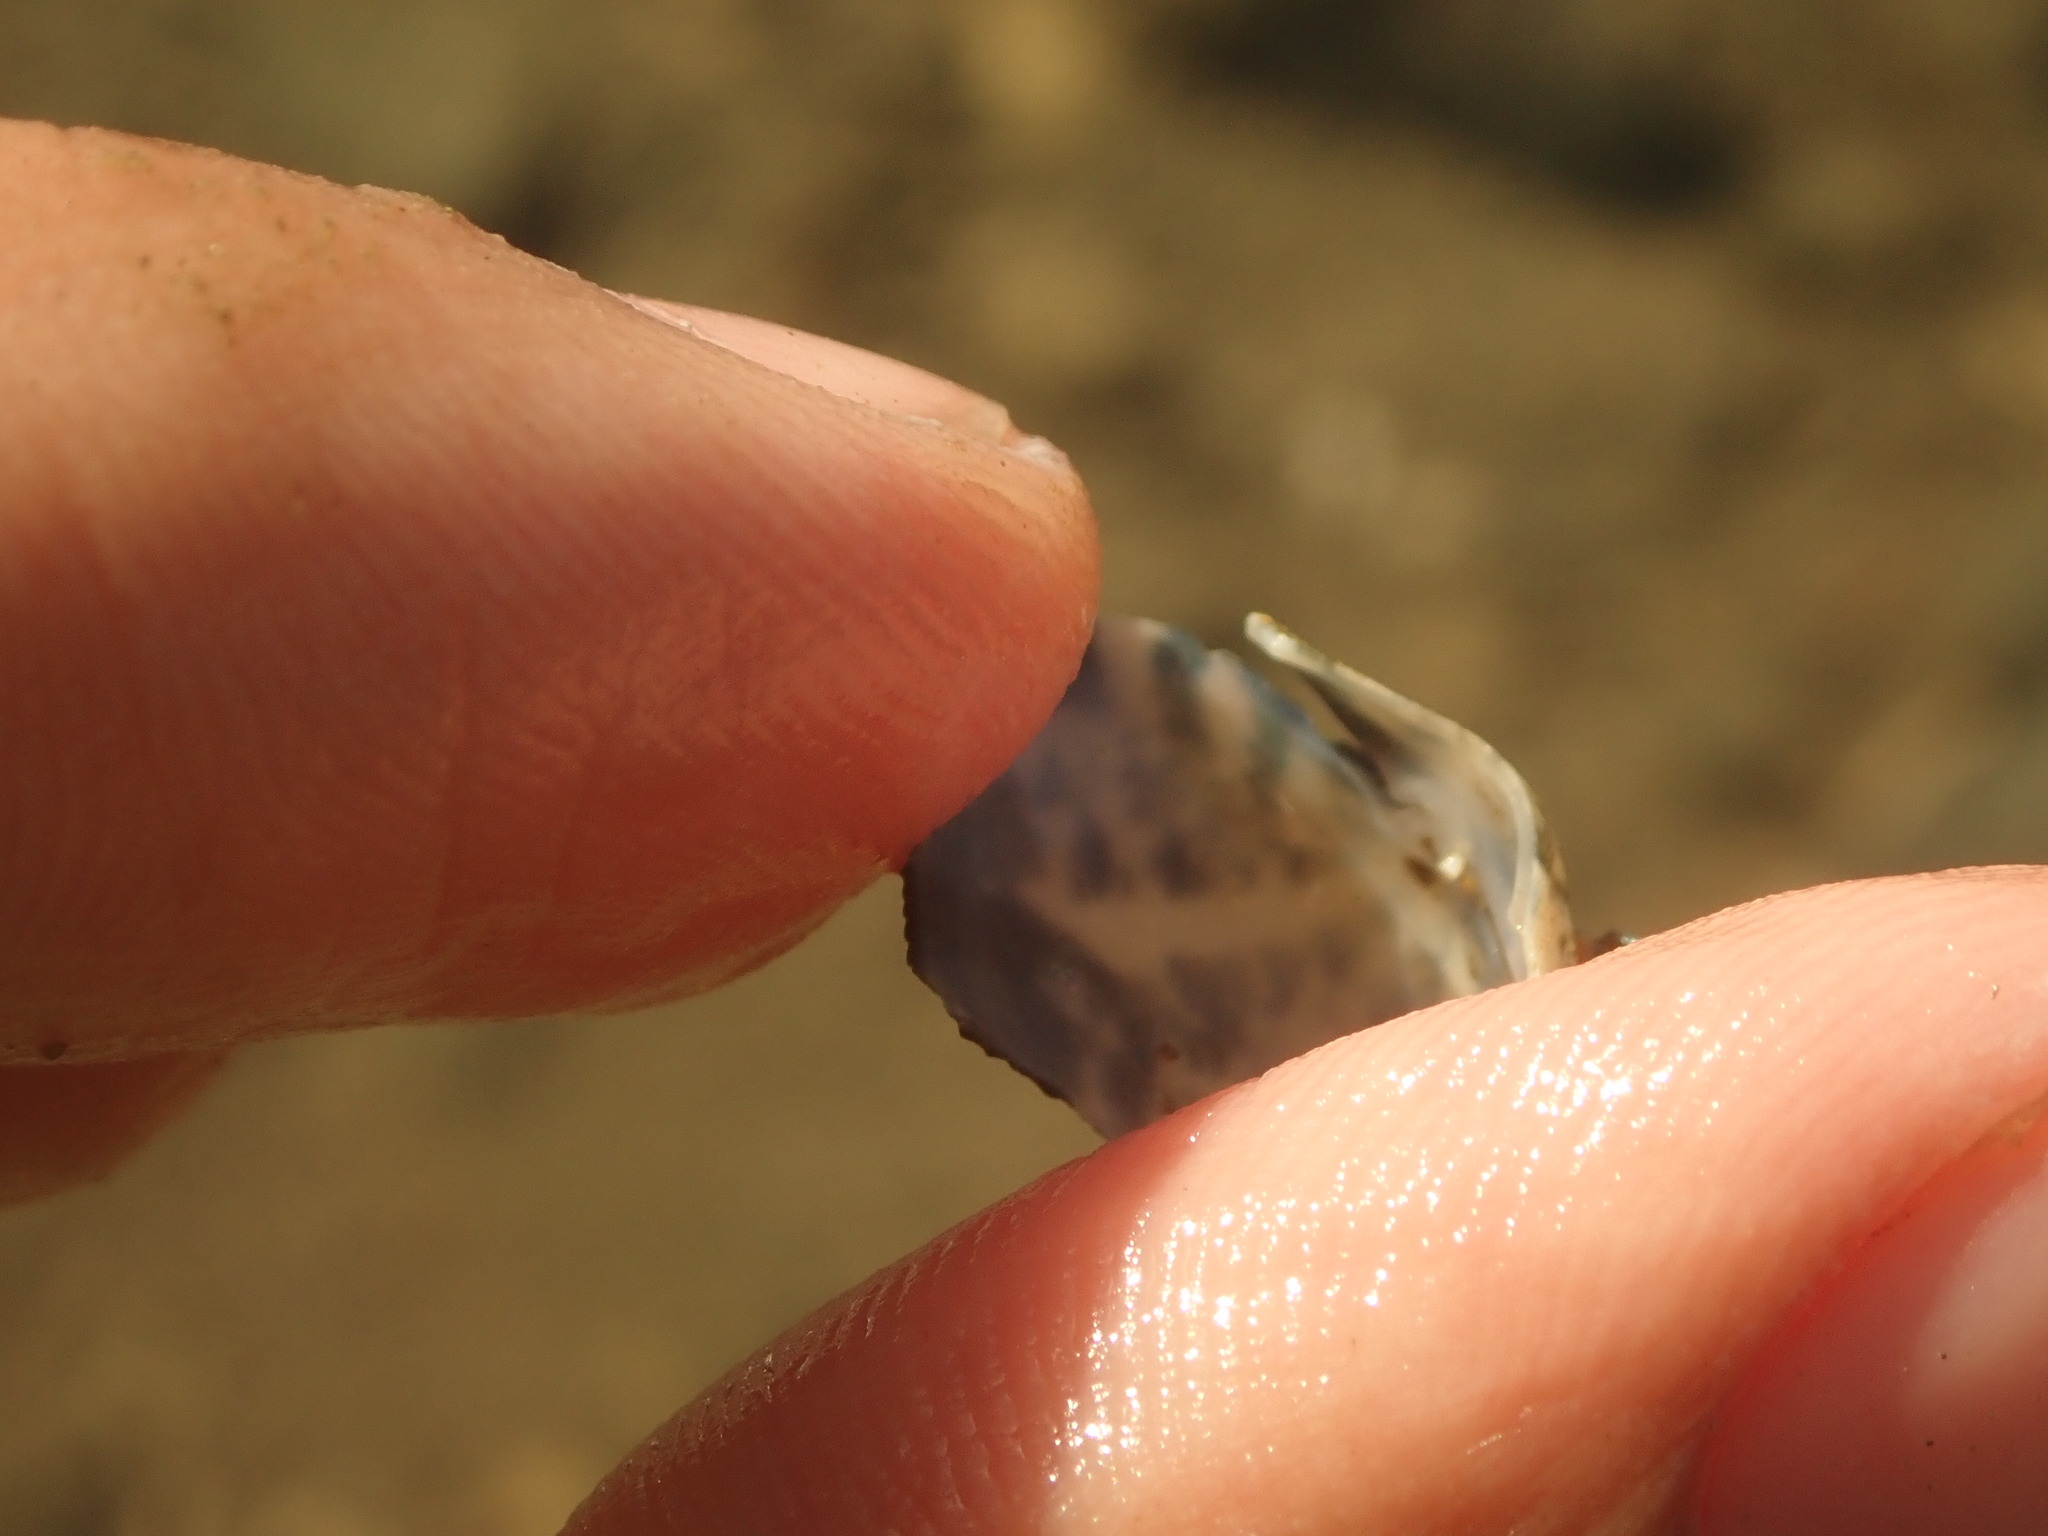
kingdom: Animalia
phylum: Mollusca
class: Bivalvia
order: Venerida
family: Veneridae
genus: Ruditapes
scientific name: Ruditapes philippinarum
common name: Manila clam
